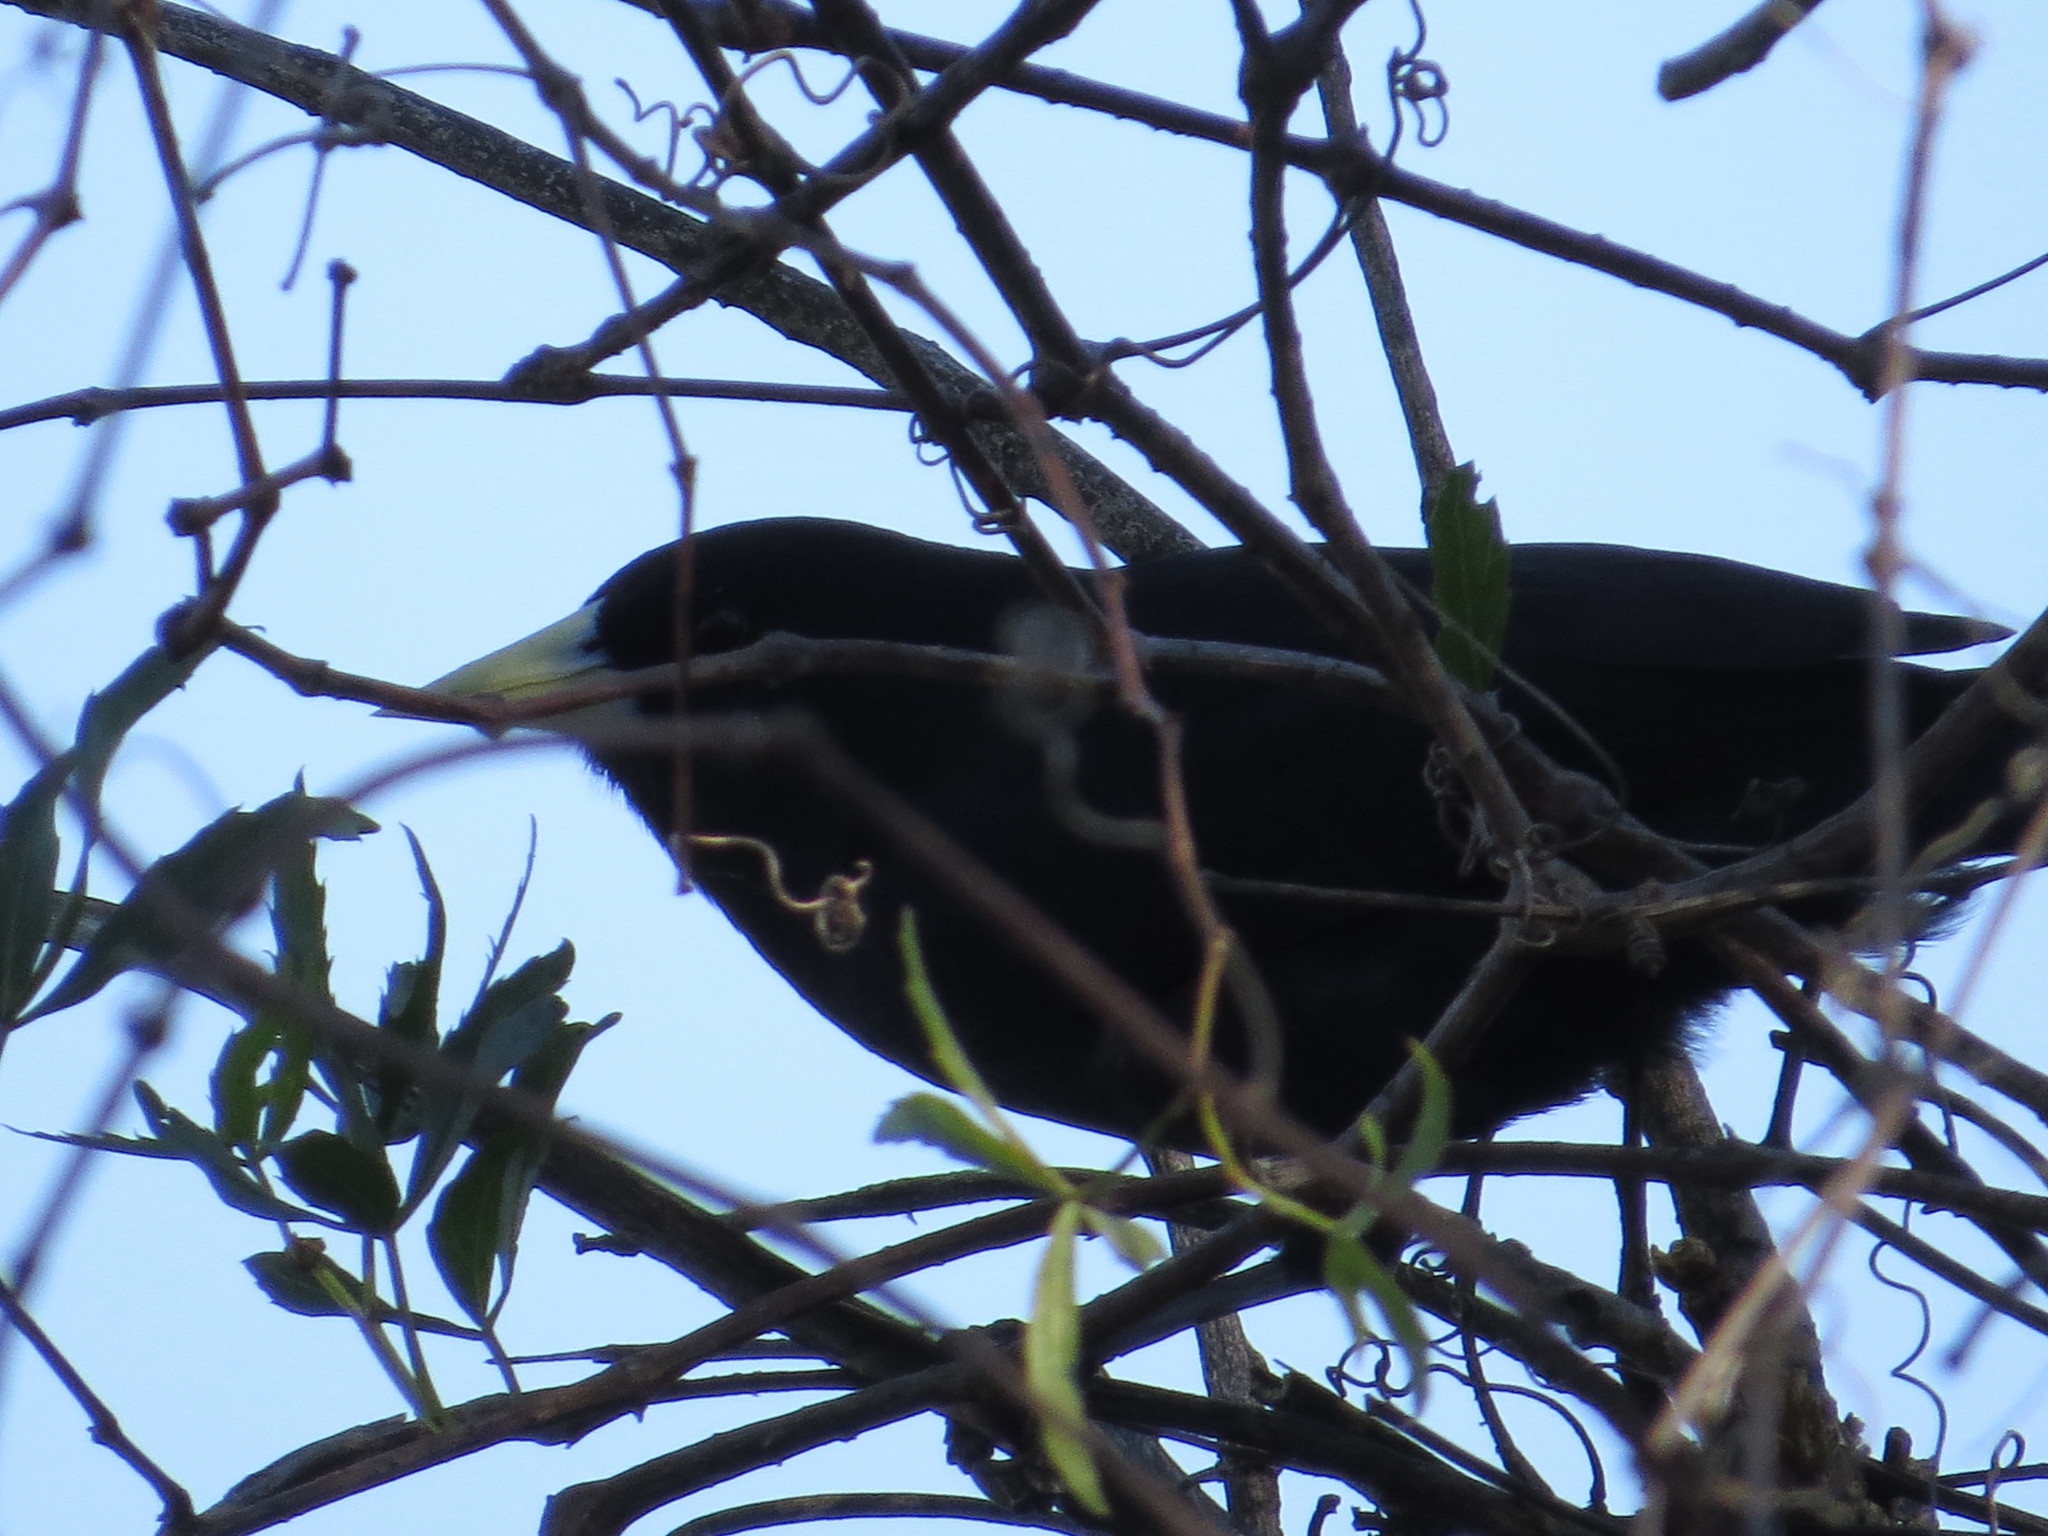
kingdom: Animalia
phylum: Chordata
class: Aves
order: Passeriformes
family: Icteridae
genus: Cacicus
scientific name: Cacicus solitarius
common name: Solitary cacique
